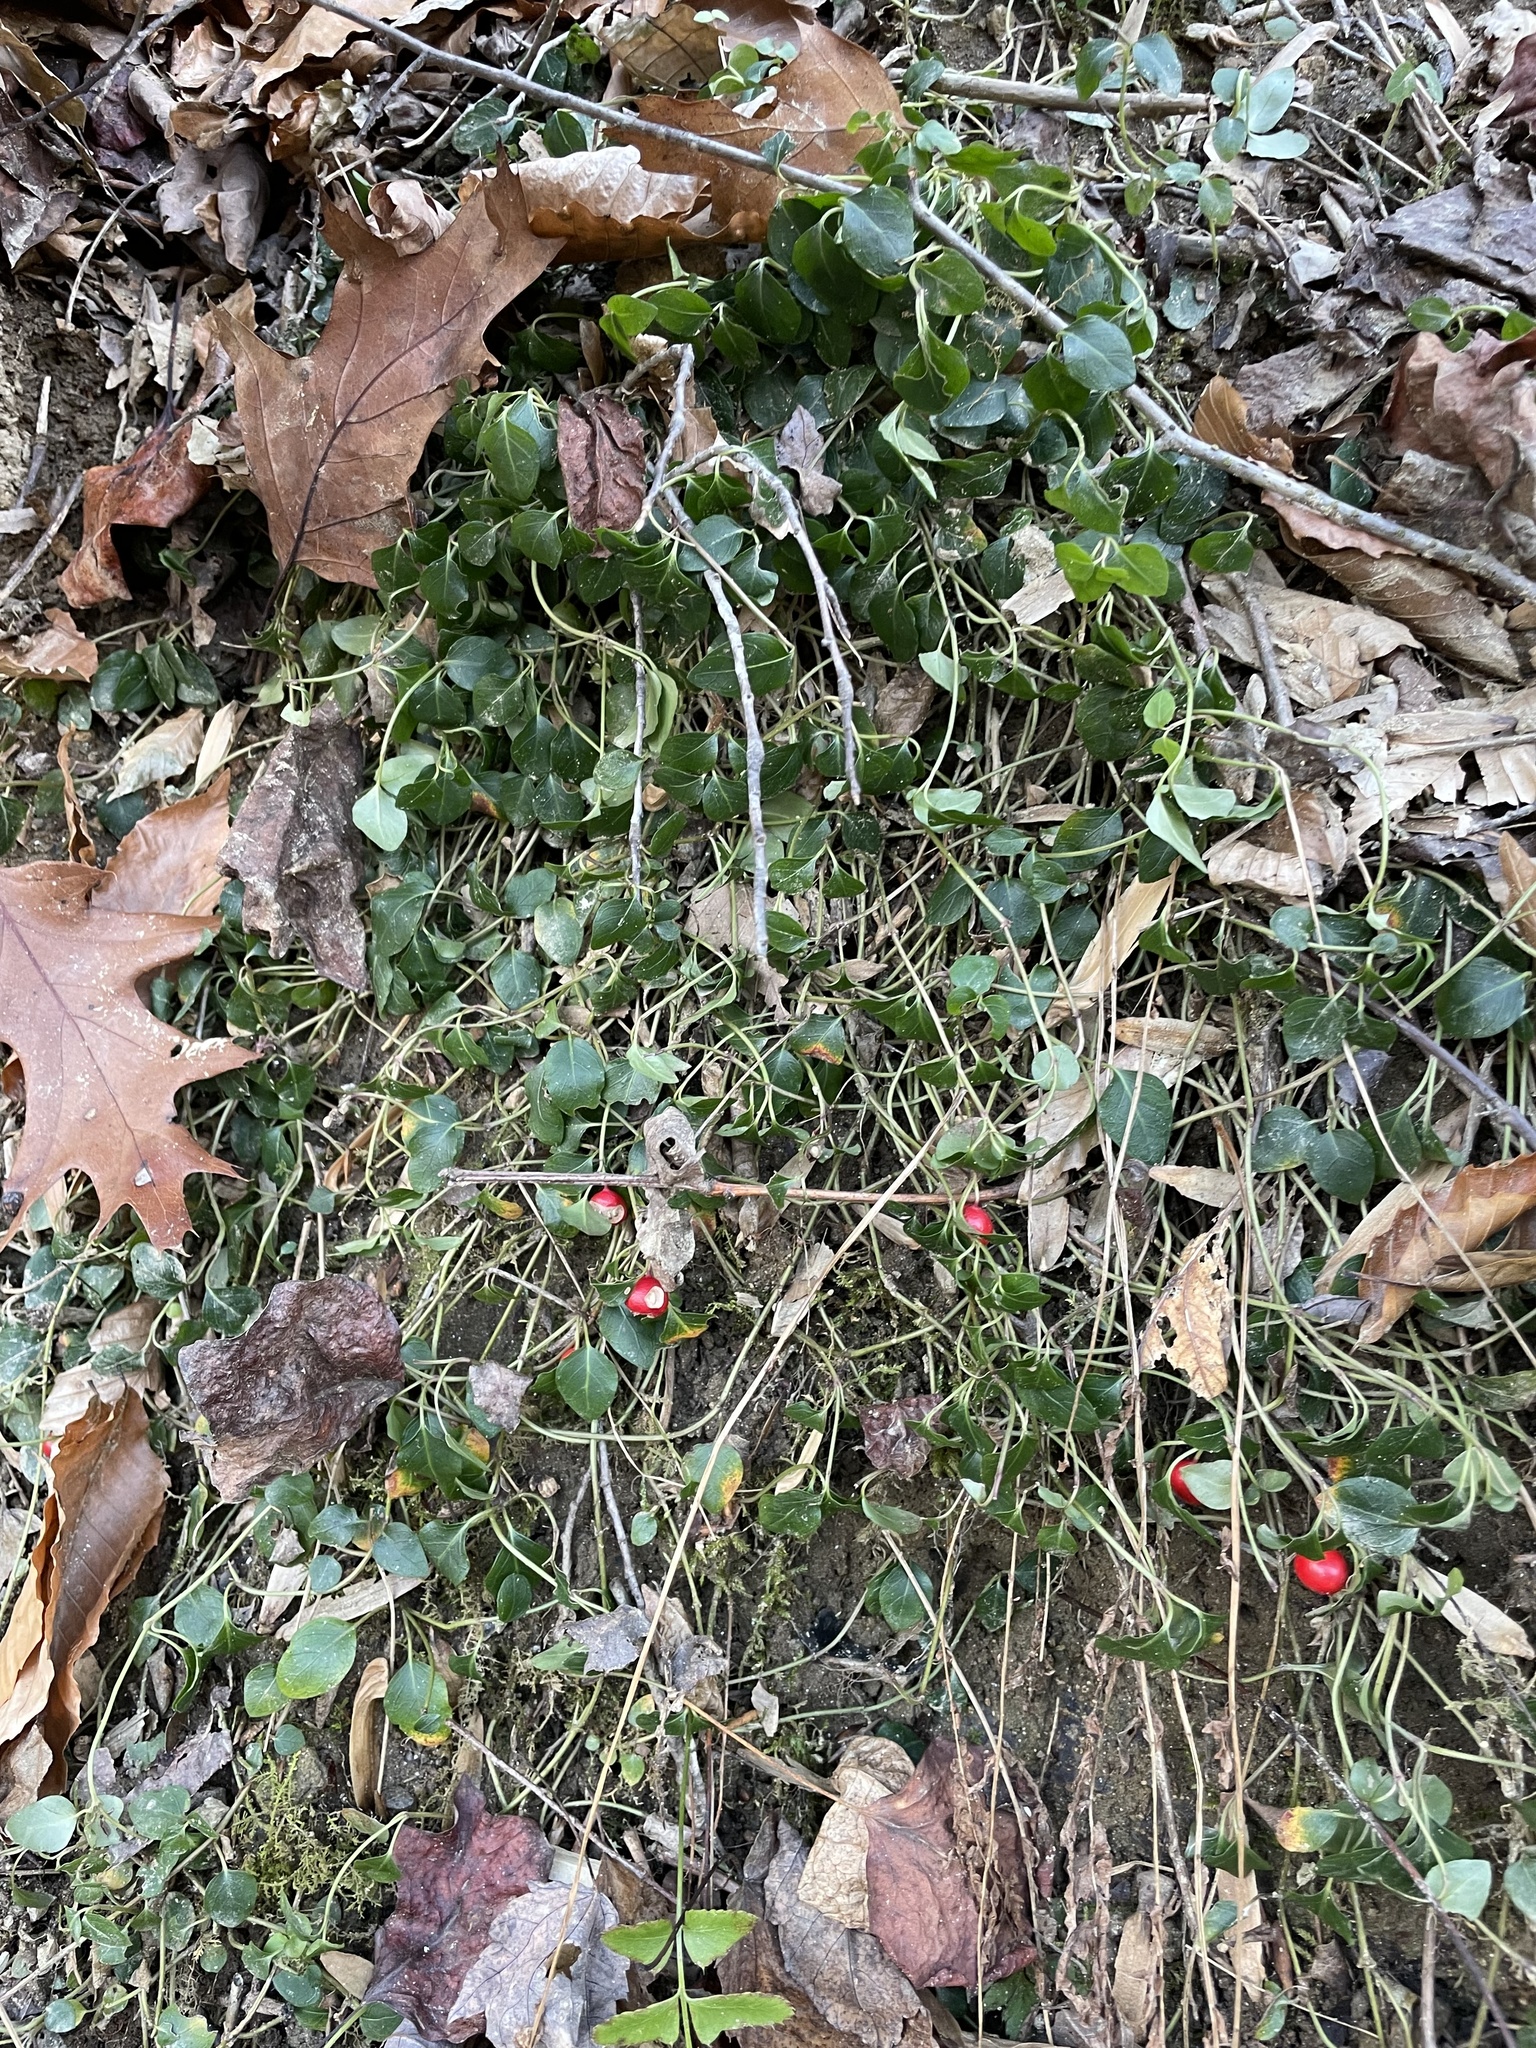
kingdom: Plantae
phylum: Tracheophyta
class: Magnoliopsida
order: Gentianales
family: Rubiaceae
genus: Mitchella
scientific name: Mitchella repens
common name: Partridge-berry
